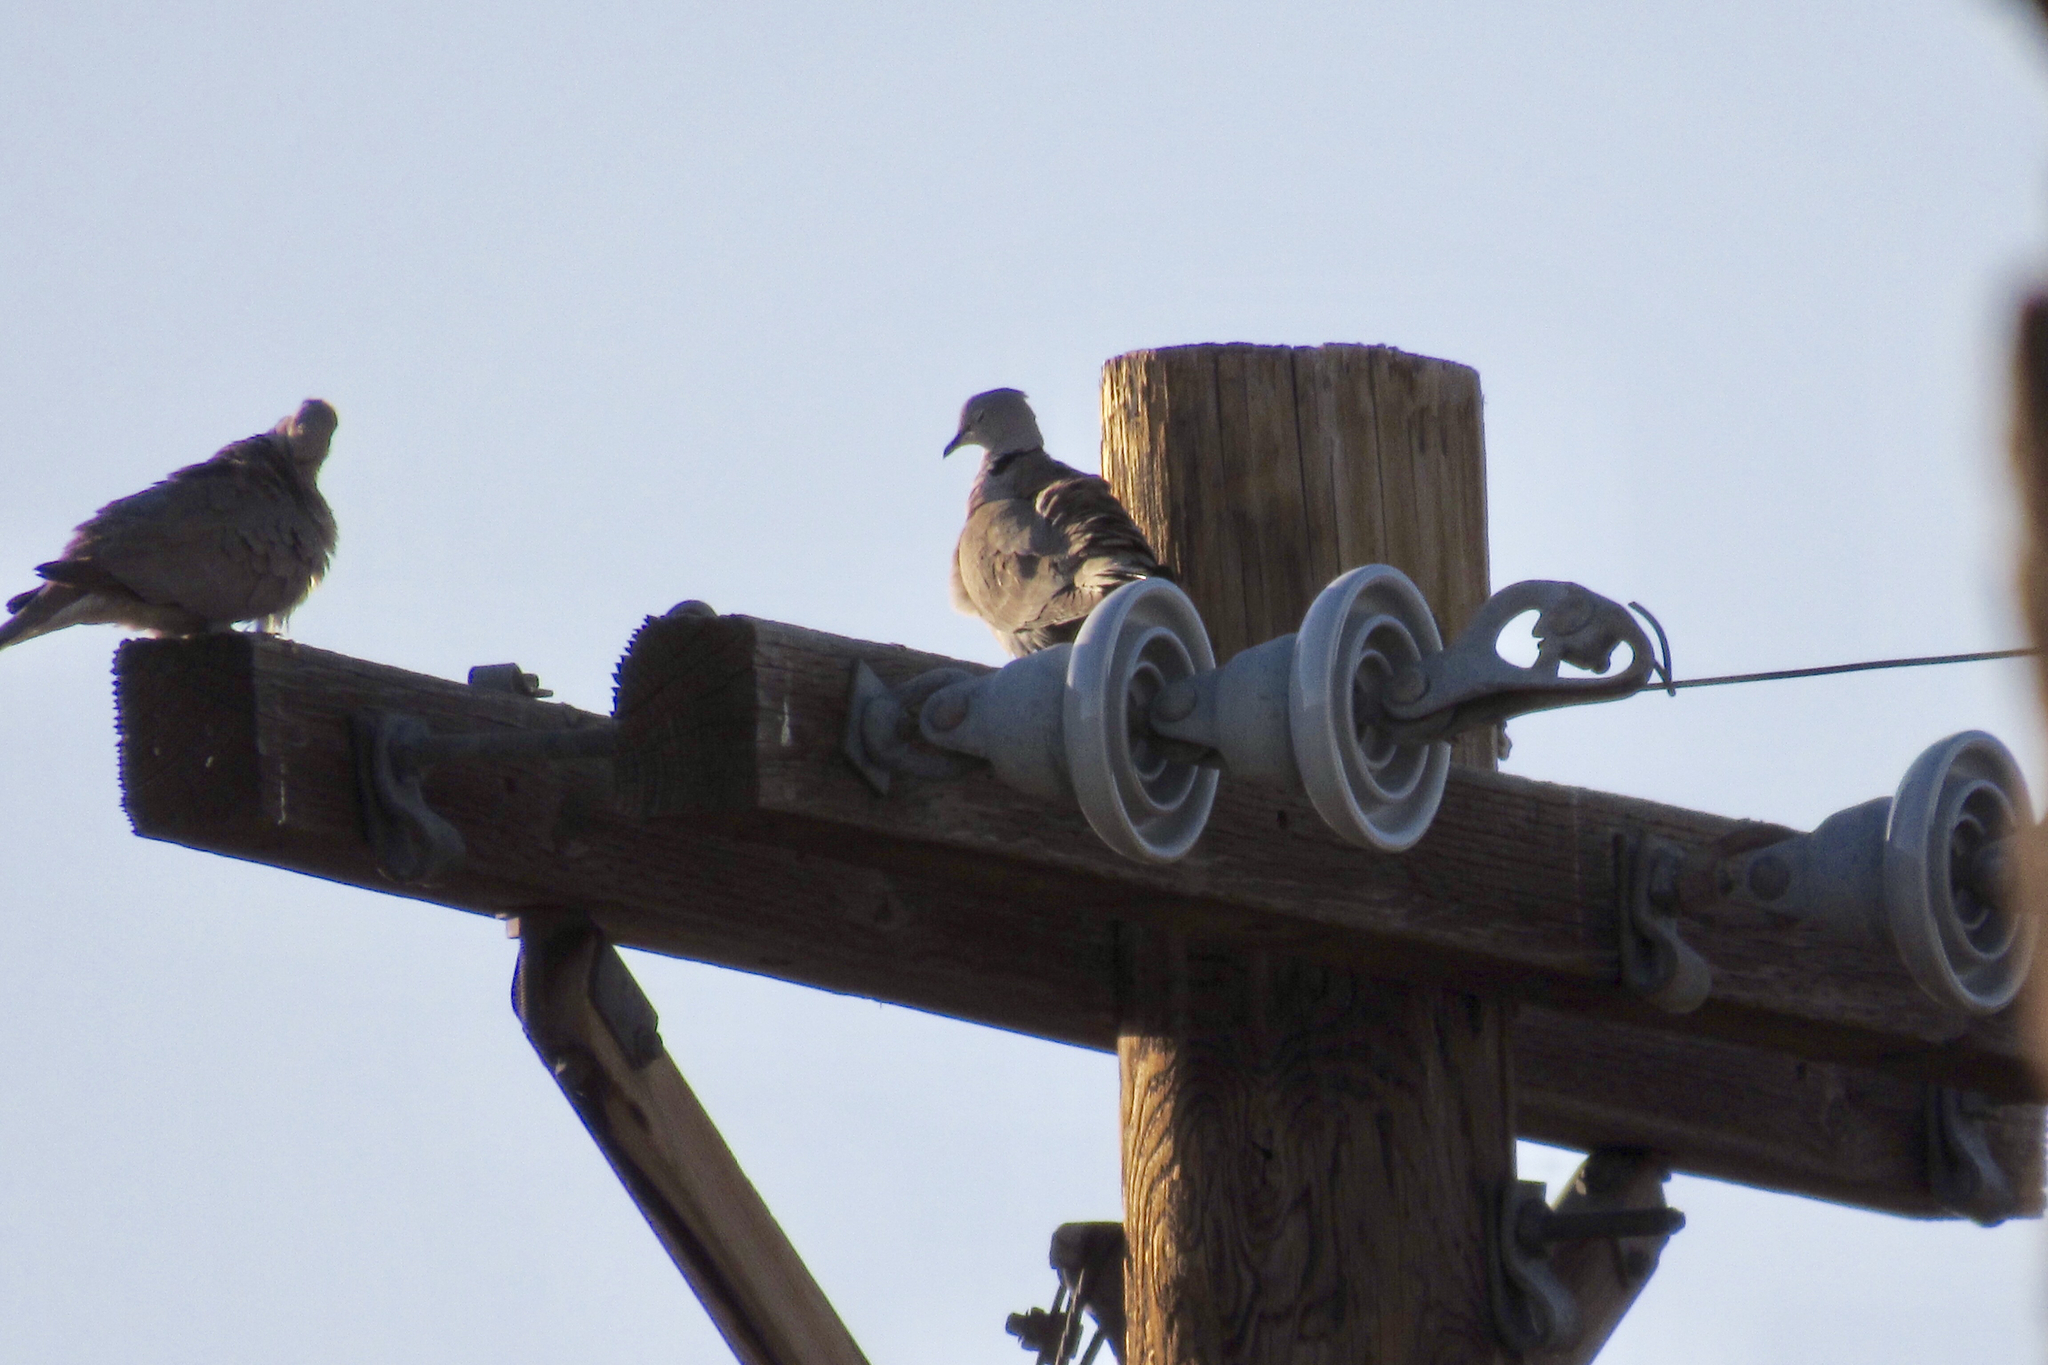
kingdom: Animalia
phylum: Chordata
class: Aves
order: Columbiformes
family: Columbidae
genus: Streptopelia
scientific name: Streptopelia decaocto
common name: Eurasian collared dove
